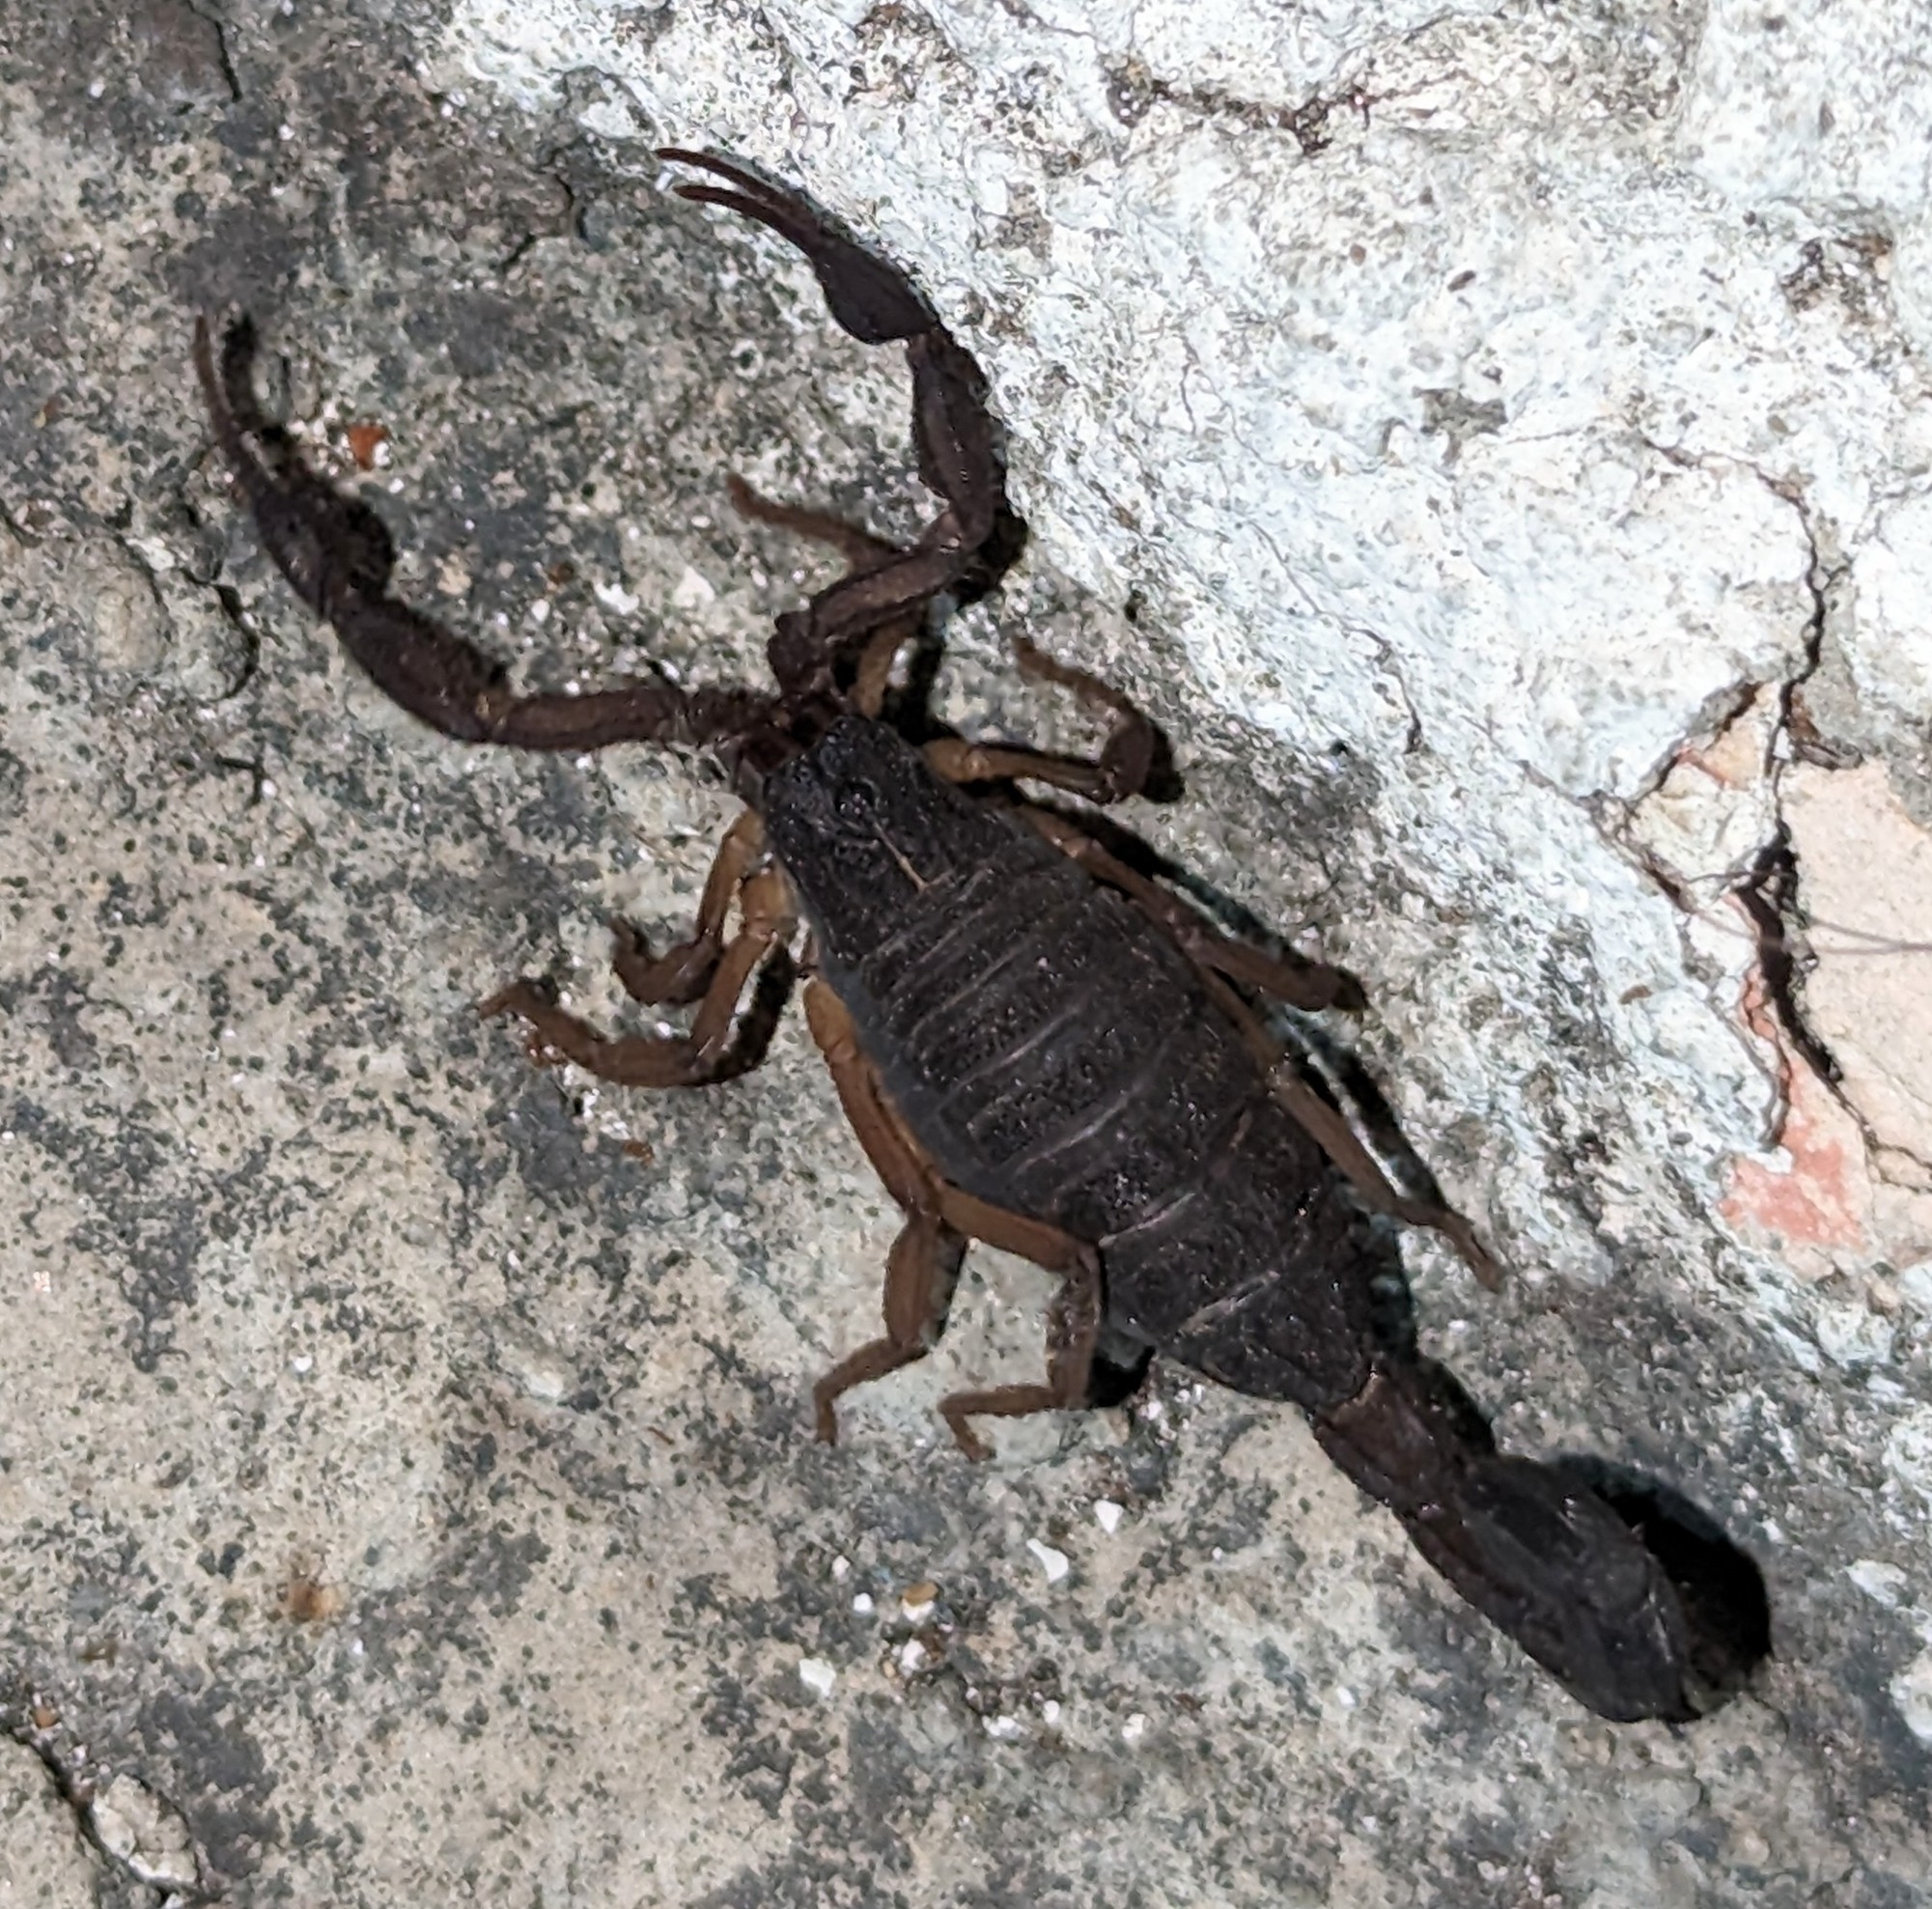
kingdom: Animalia
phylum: Arthropoda
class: Arachnida
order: Scorpiones
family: Buthidae
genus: Centruroides
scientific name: Centruroides gracilis
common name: Scorpions
